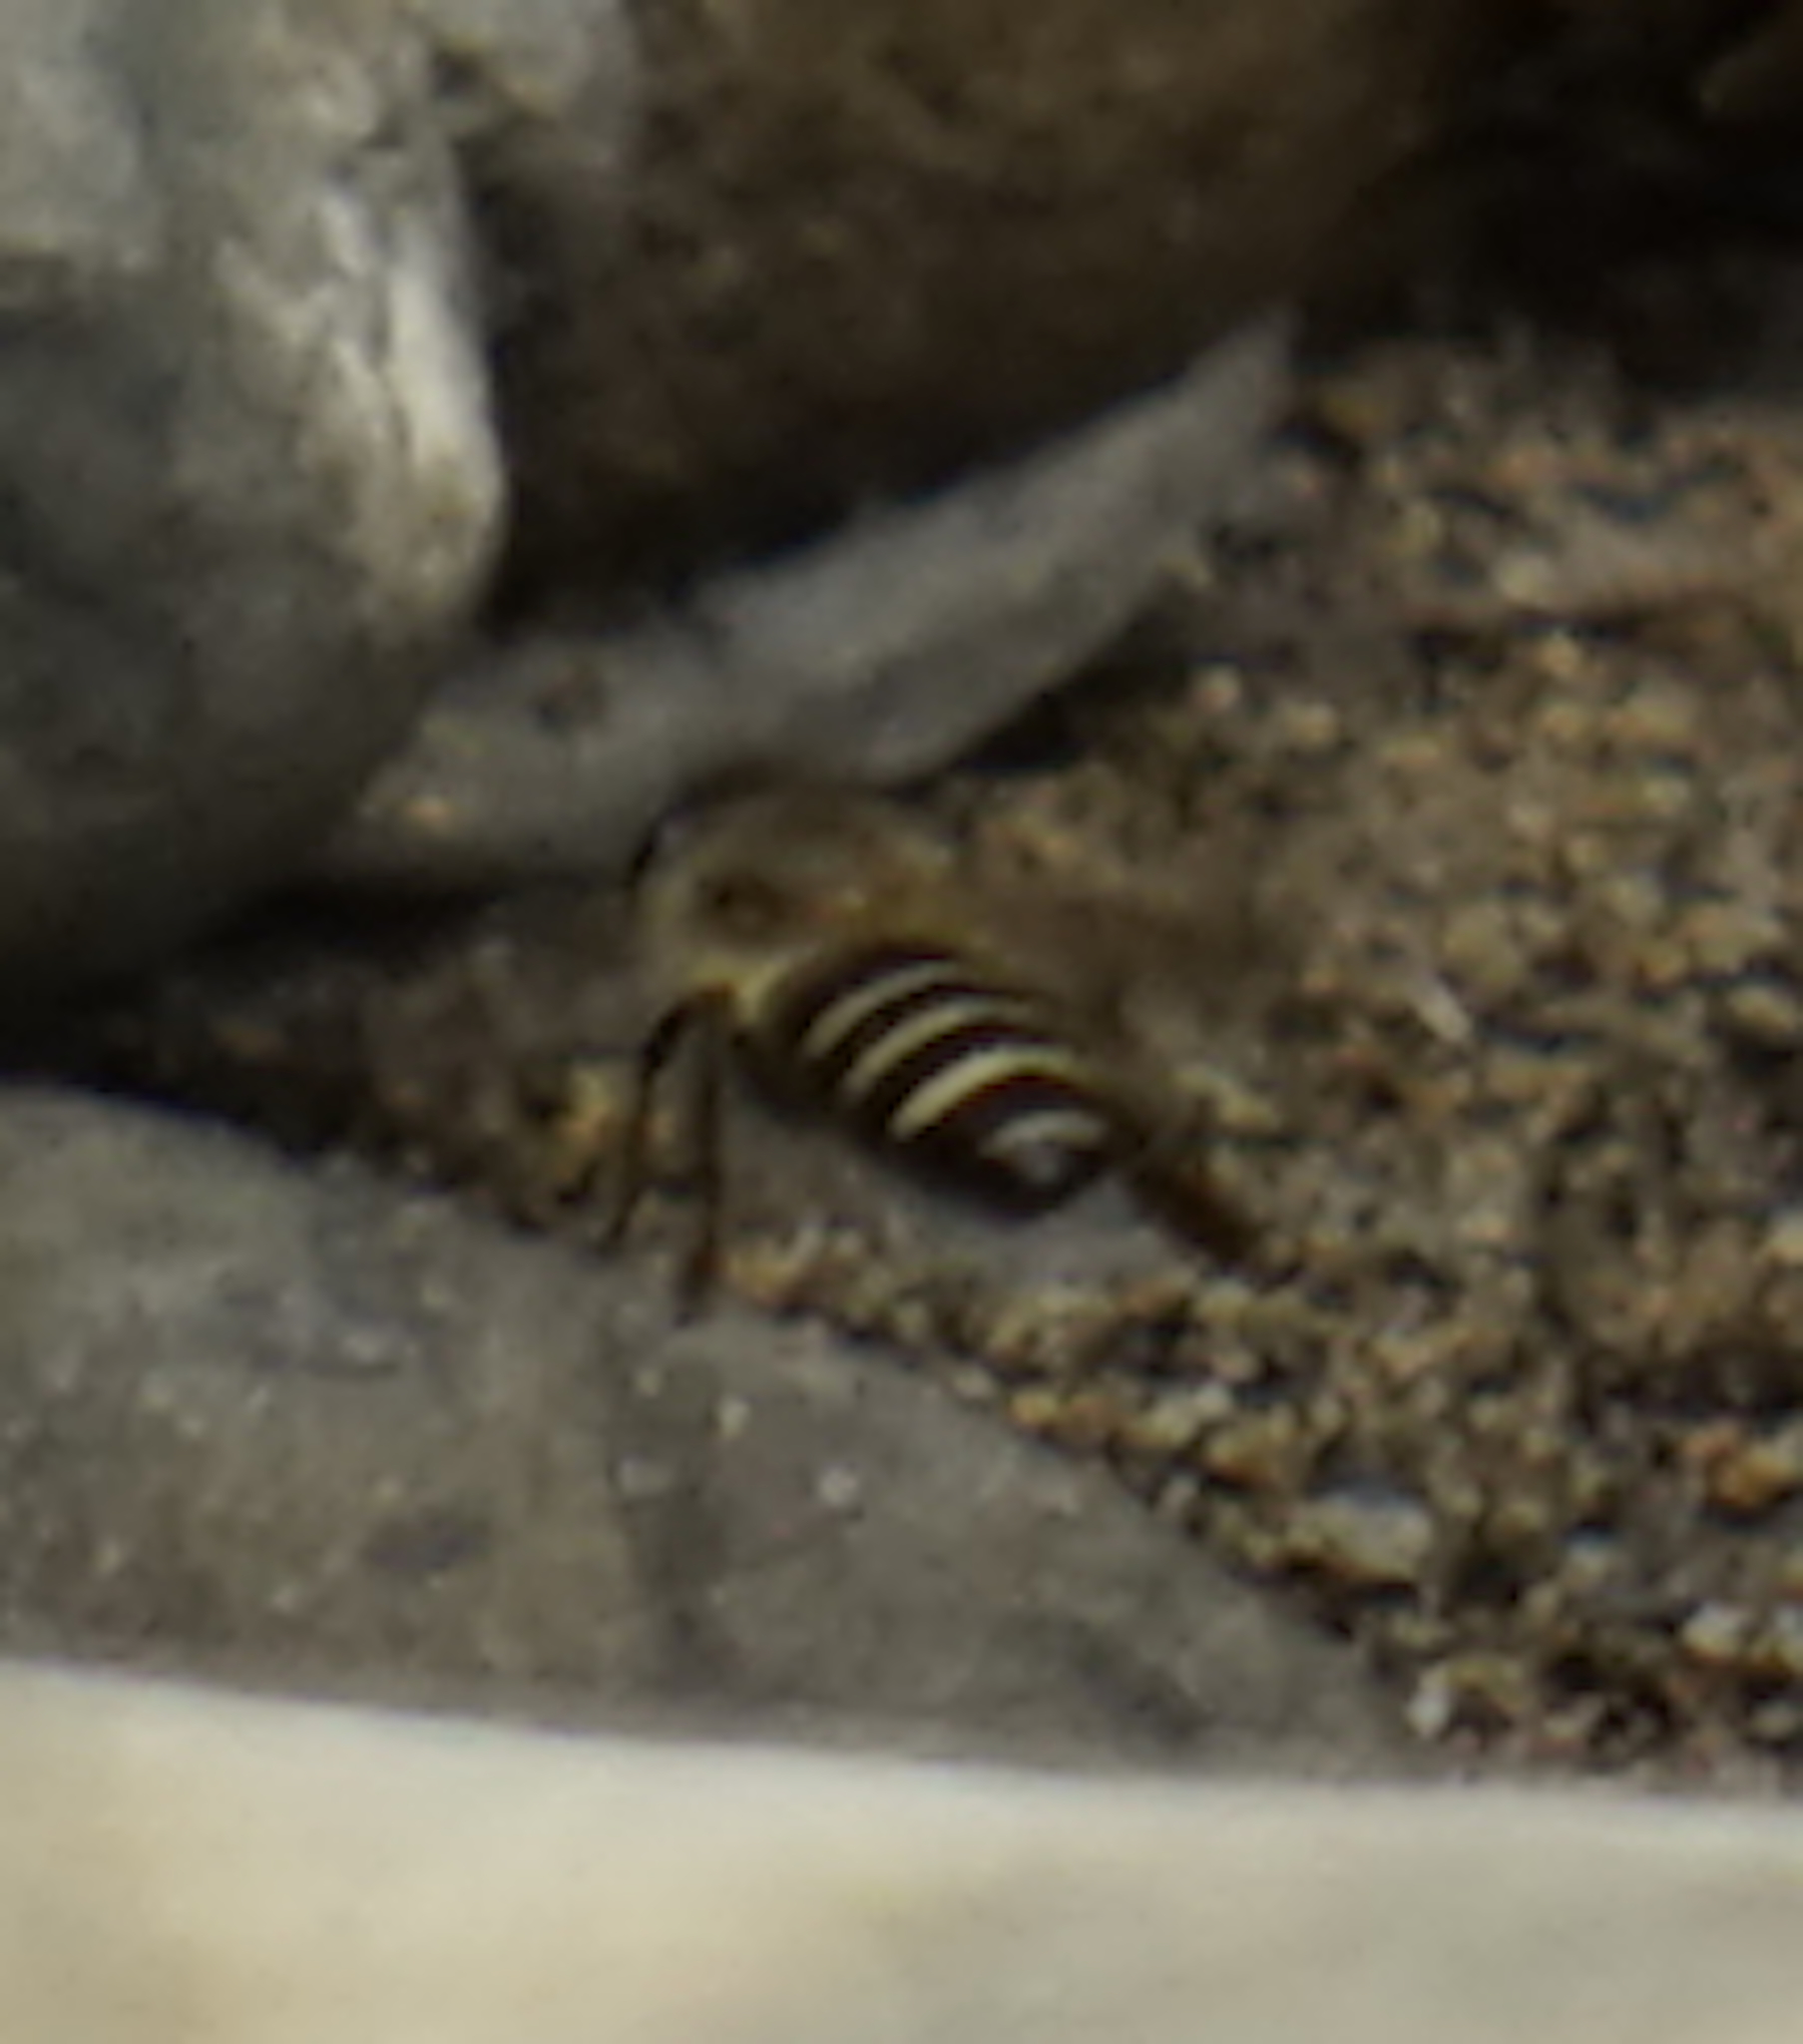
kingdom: Animalia
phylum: Arthropoda
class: Insecta
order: Hymenoptera
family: Apidae
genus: Apis
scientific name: Apis
